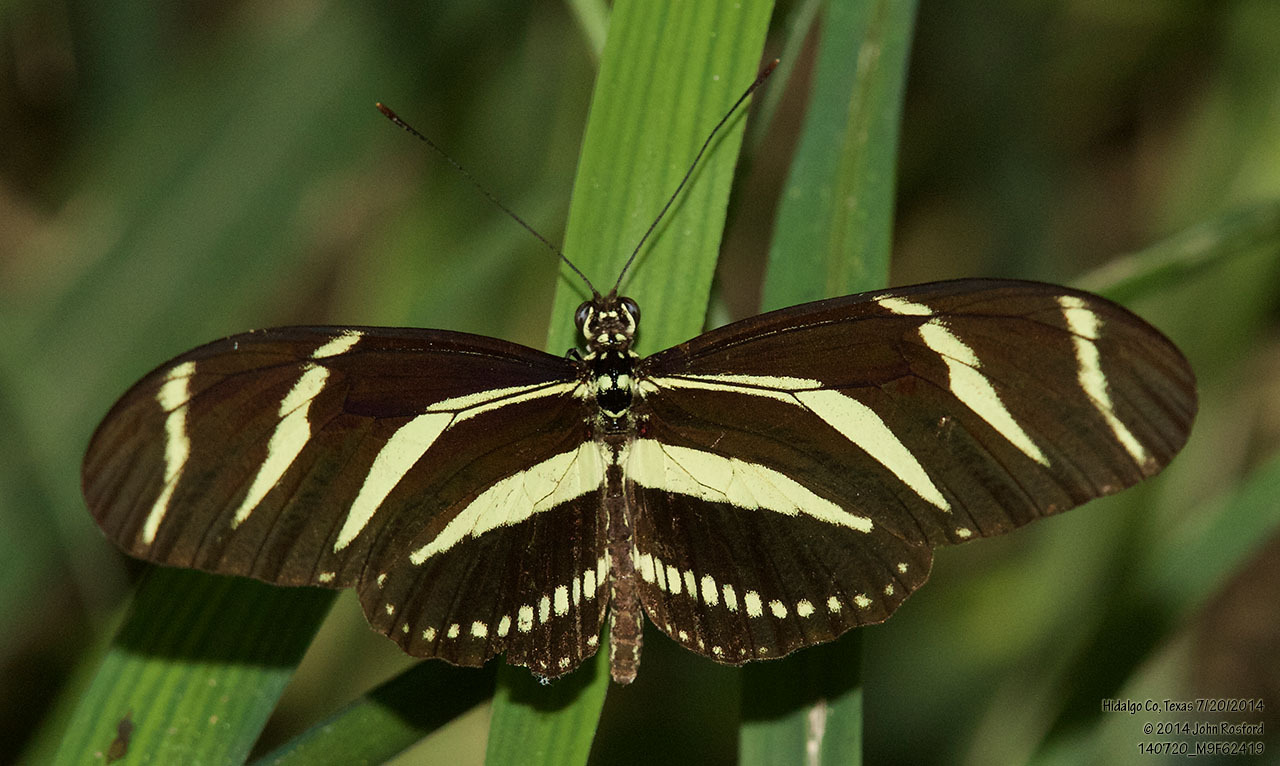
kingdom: Animalia
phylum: Arthropoda
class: Insecta
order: Lepidoptera
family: Nymphalidae
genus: Heliconius
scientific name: Heliconius charithonia
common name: Zebra long wing
